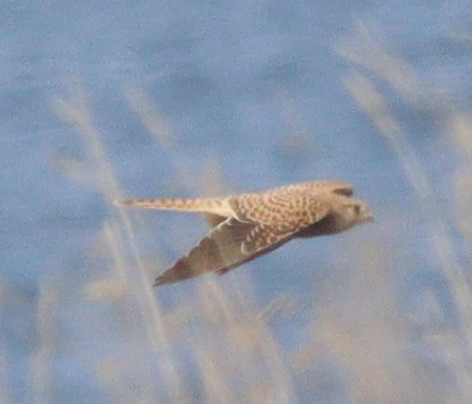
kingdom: Animalia
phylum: Chordata
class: Aves
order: Falconiformes
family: Falconidae
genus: Falco
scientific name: Falco tinnunculus
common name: Common kestrel
